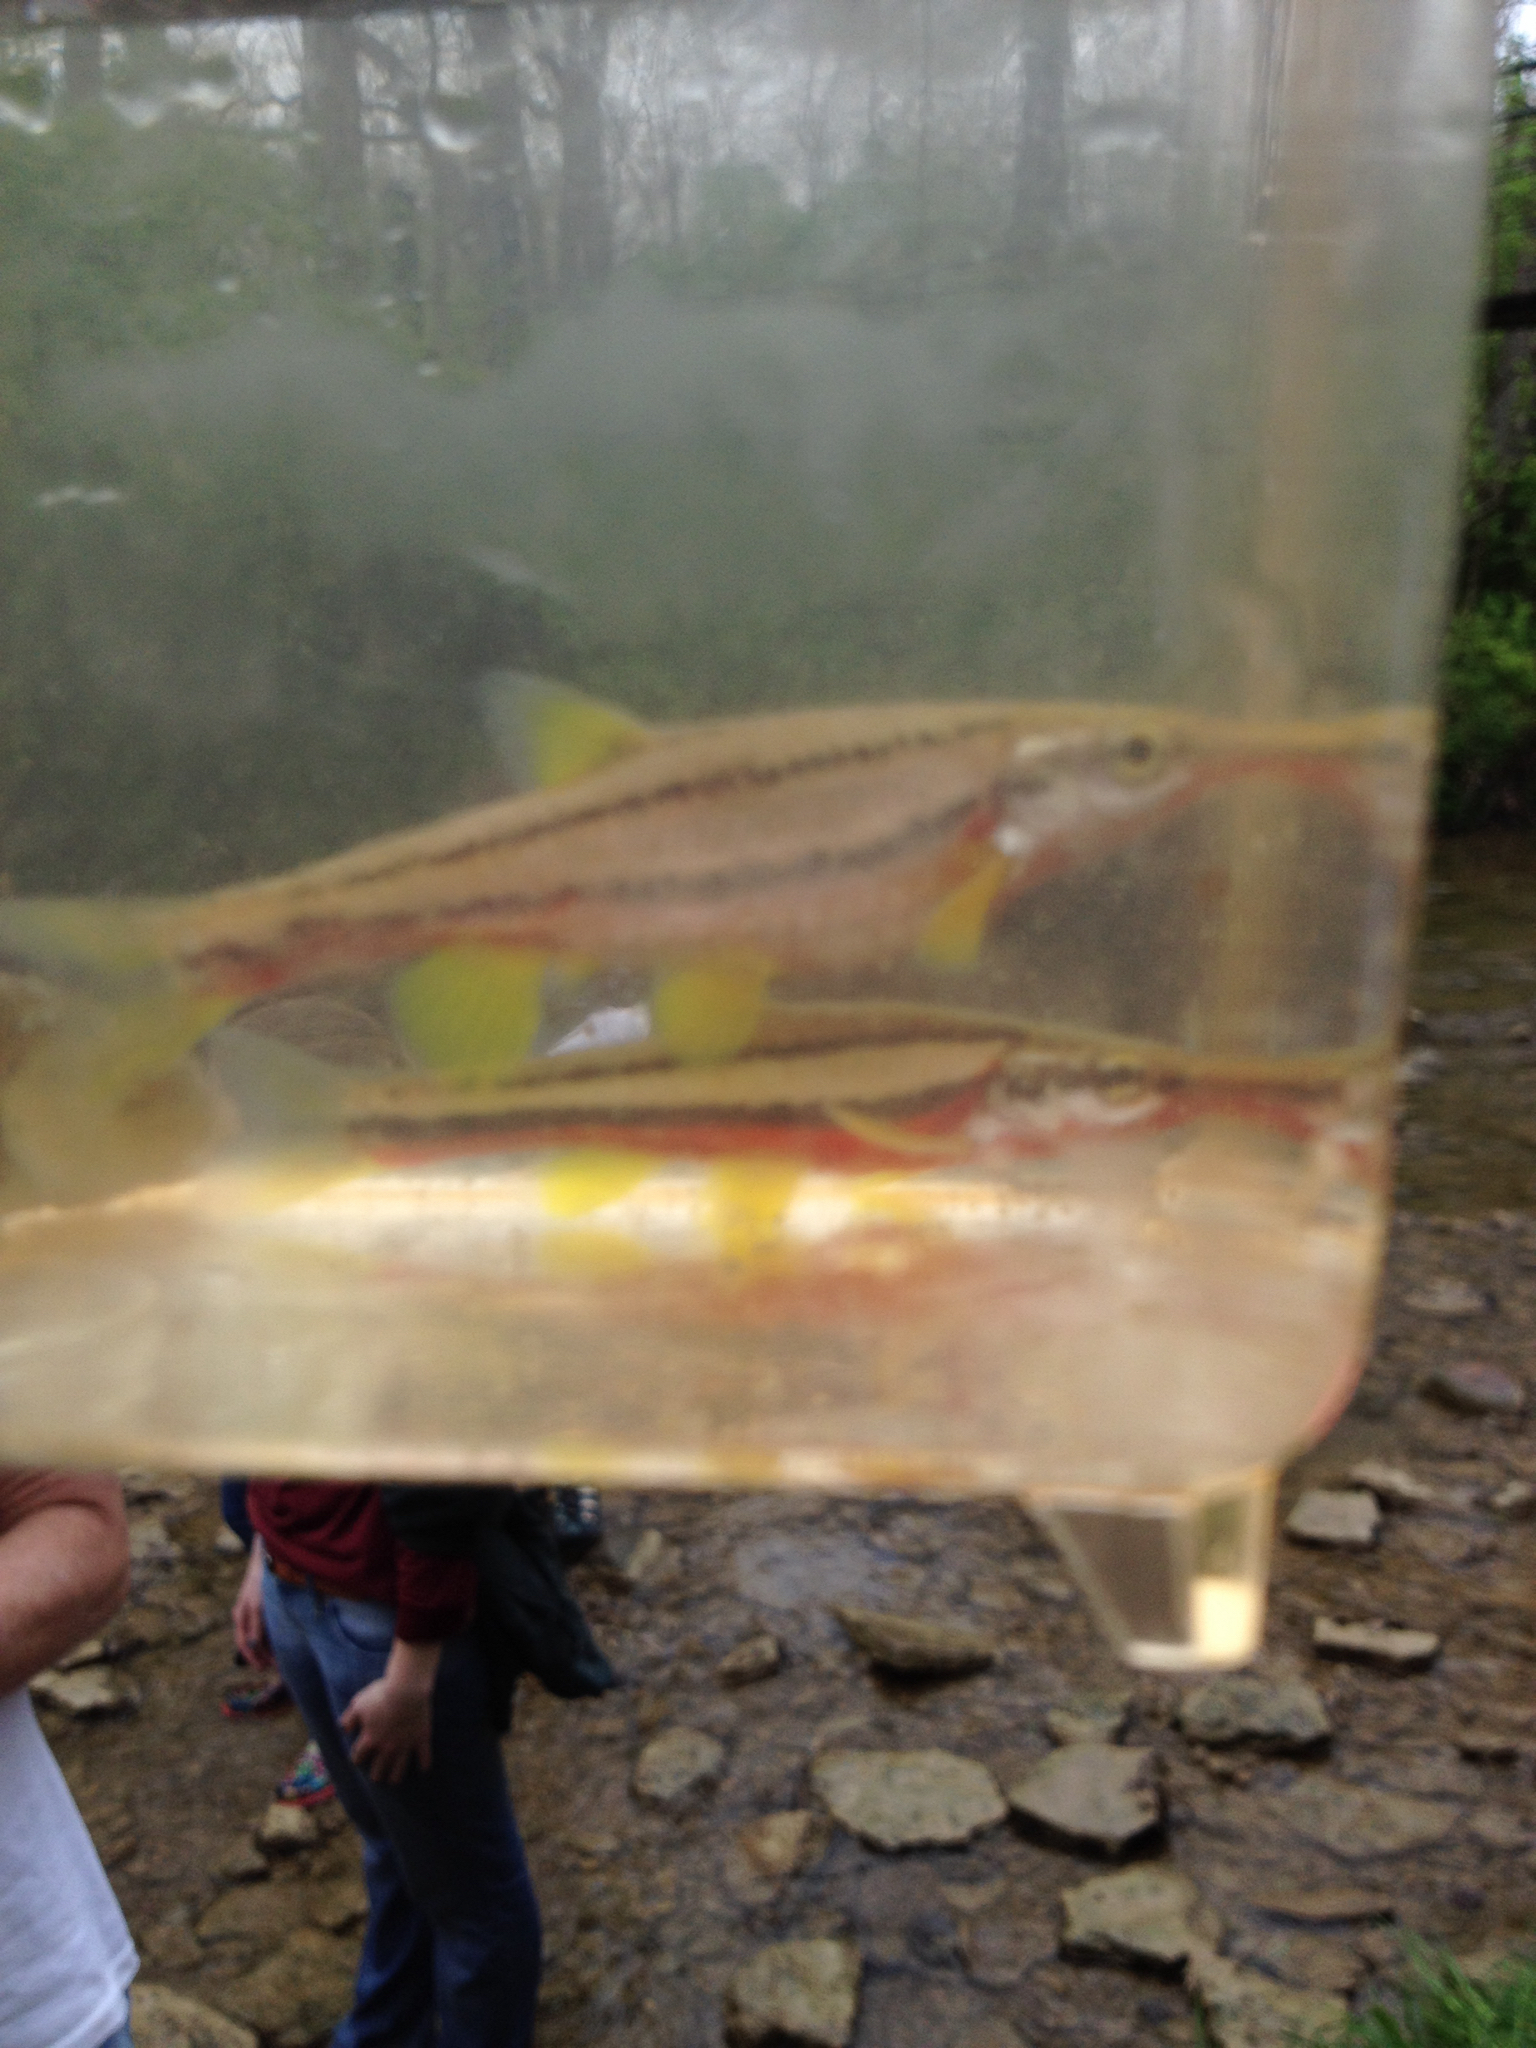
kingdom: Animalia
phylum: Chordata
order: Cypriniformes
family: Cyprinidae
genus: Chrosomus
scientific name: Chrosomus erythrogaster
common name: Southern redbelly dace
